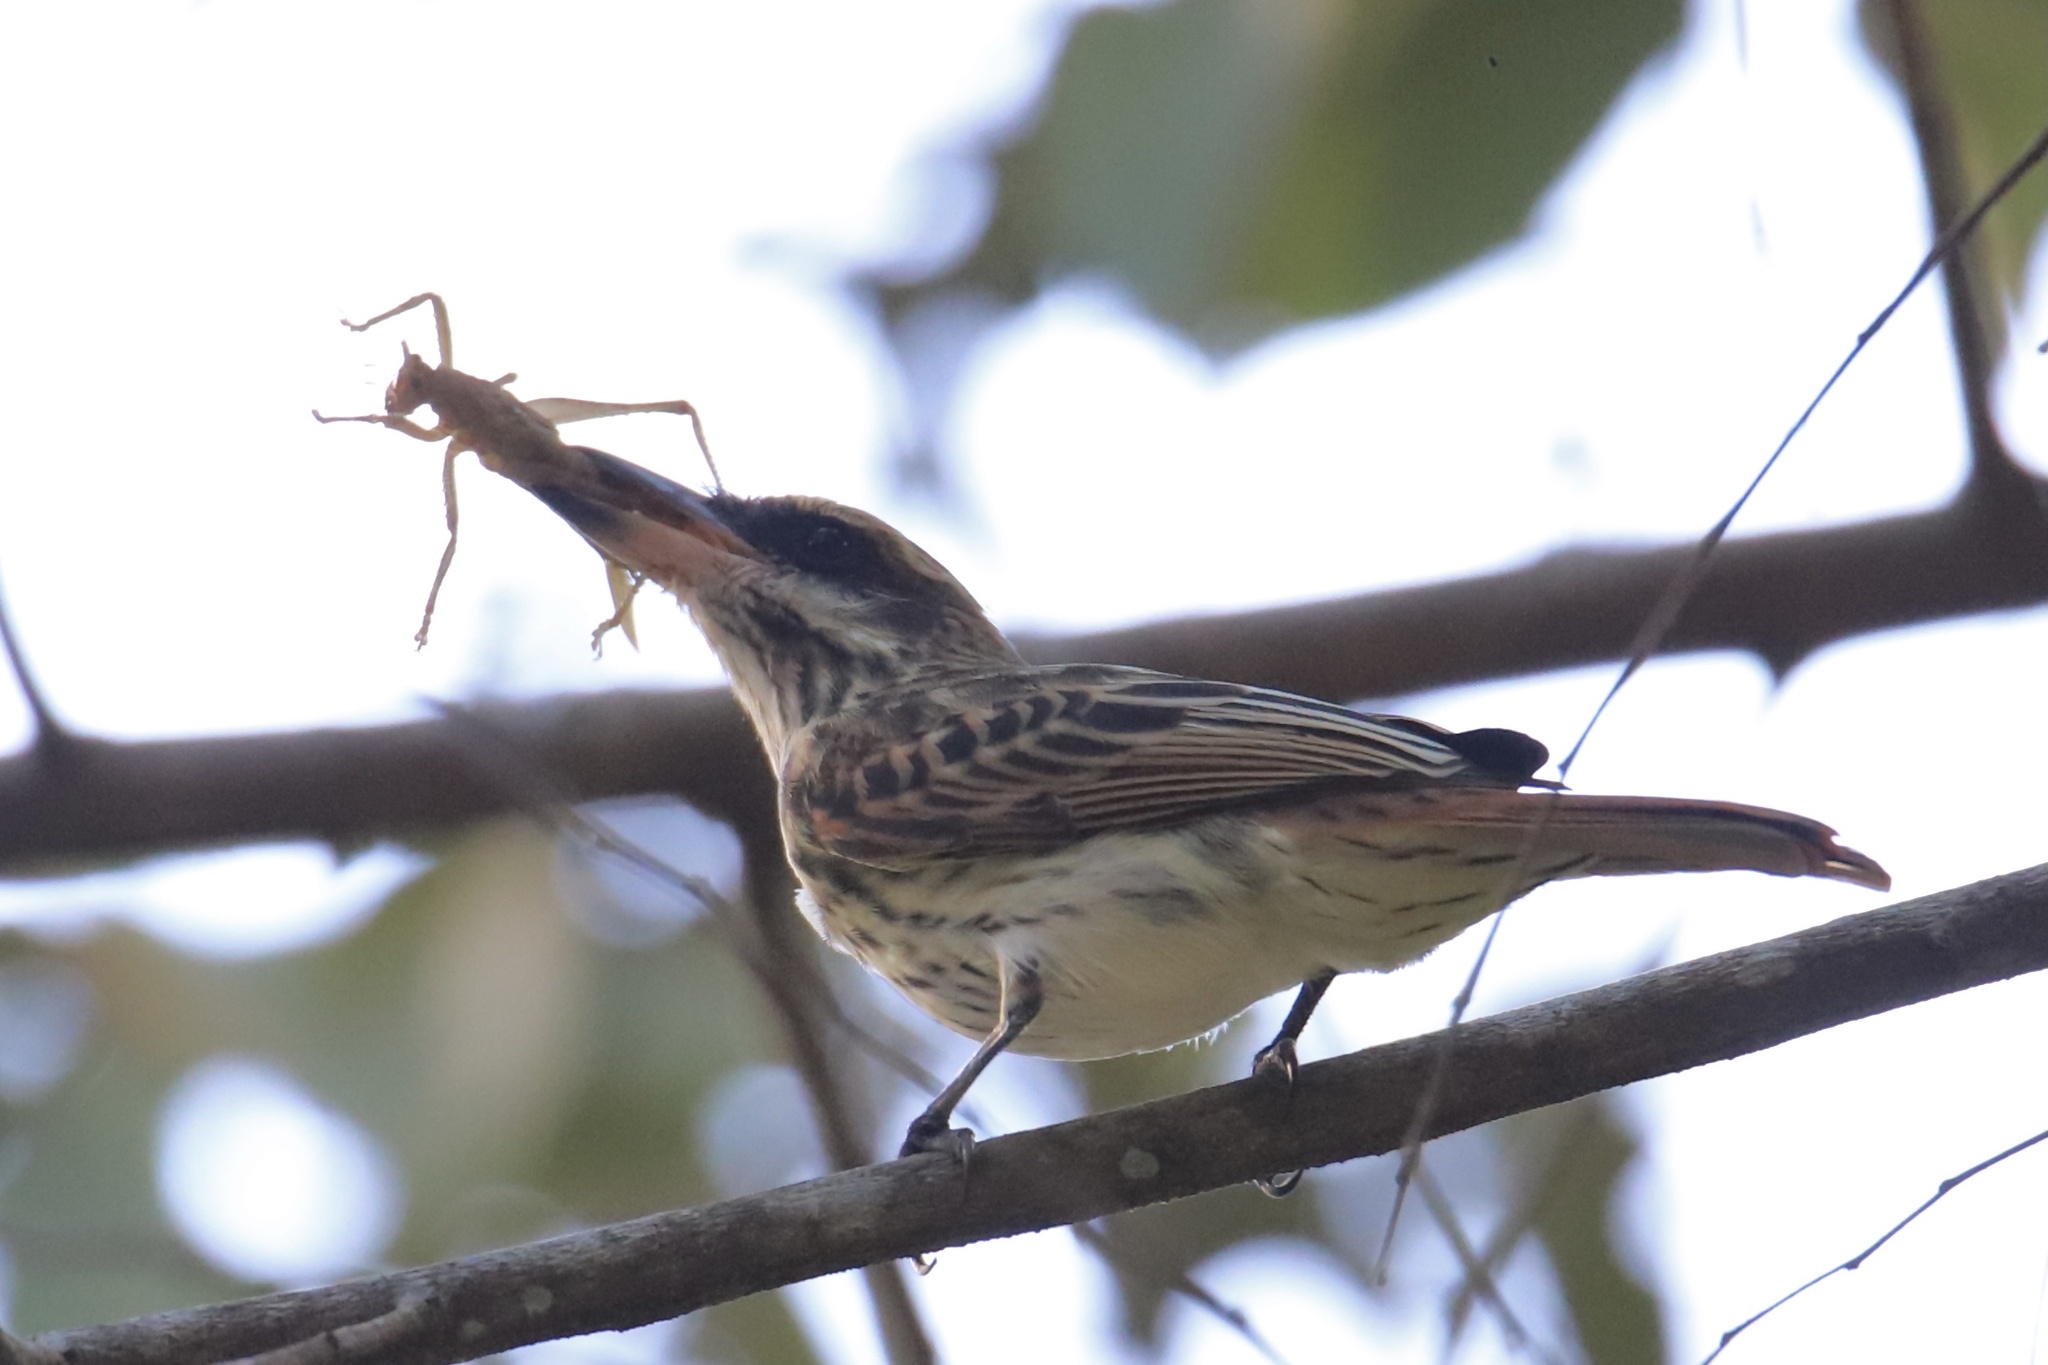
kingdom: Animalia
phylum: Chordata
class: Aves
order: Passeriformes
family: Tyrannidae
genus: Myiodynastes
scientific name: Myiodynastes maculatus
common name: Streaked flycatcher
